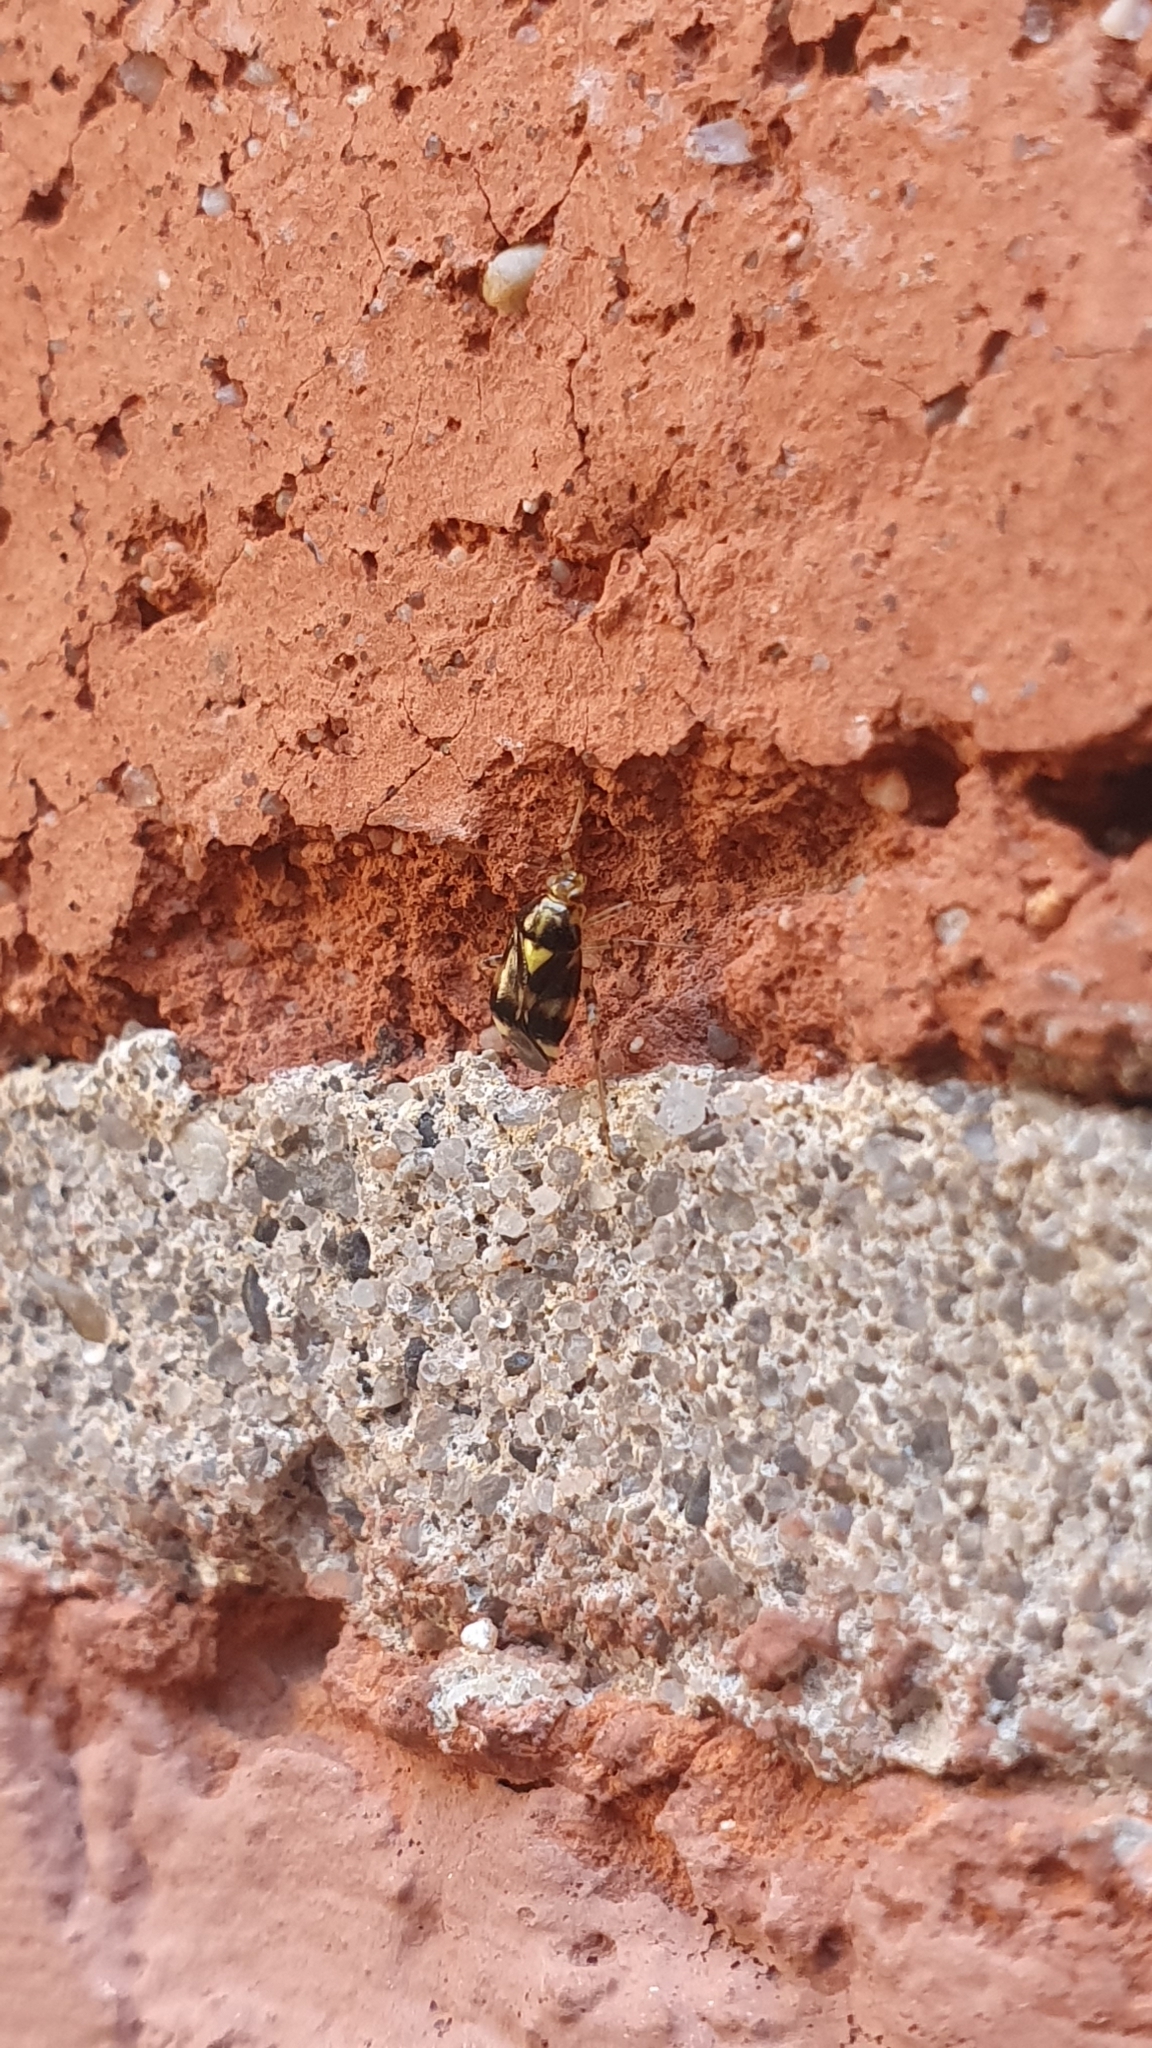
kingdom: Animalia
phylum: Arthropoda
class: Insecta
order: Hemiptera
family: Miridae
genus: Liocoris
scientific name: Liocoris tripustulatus
